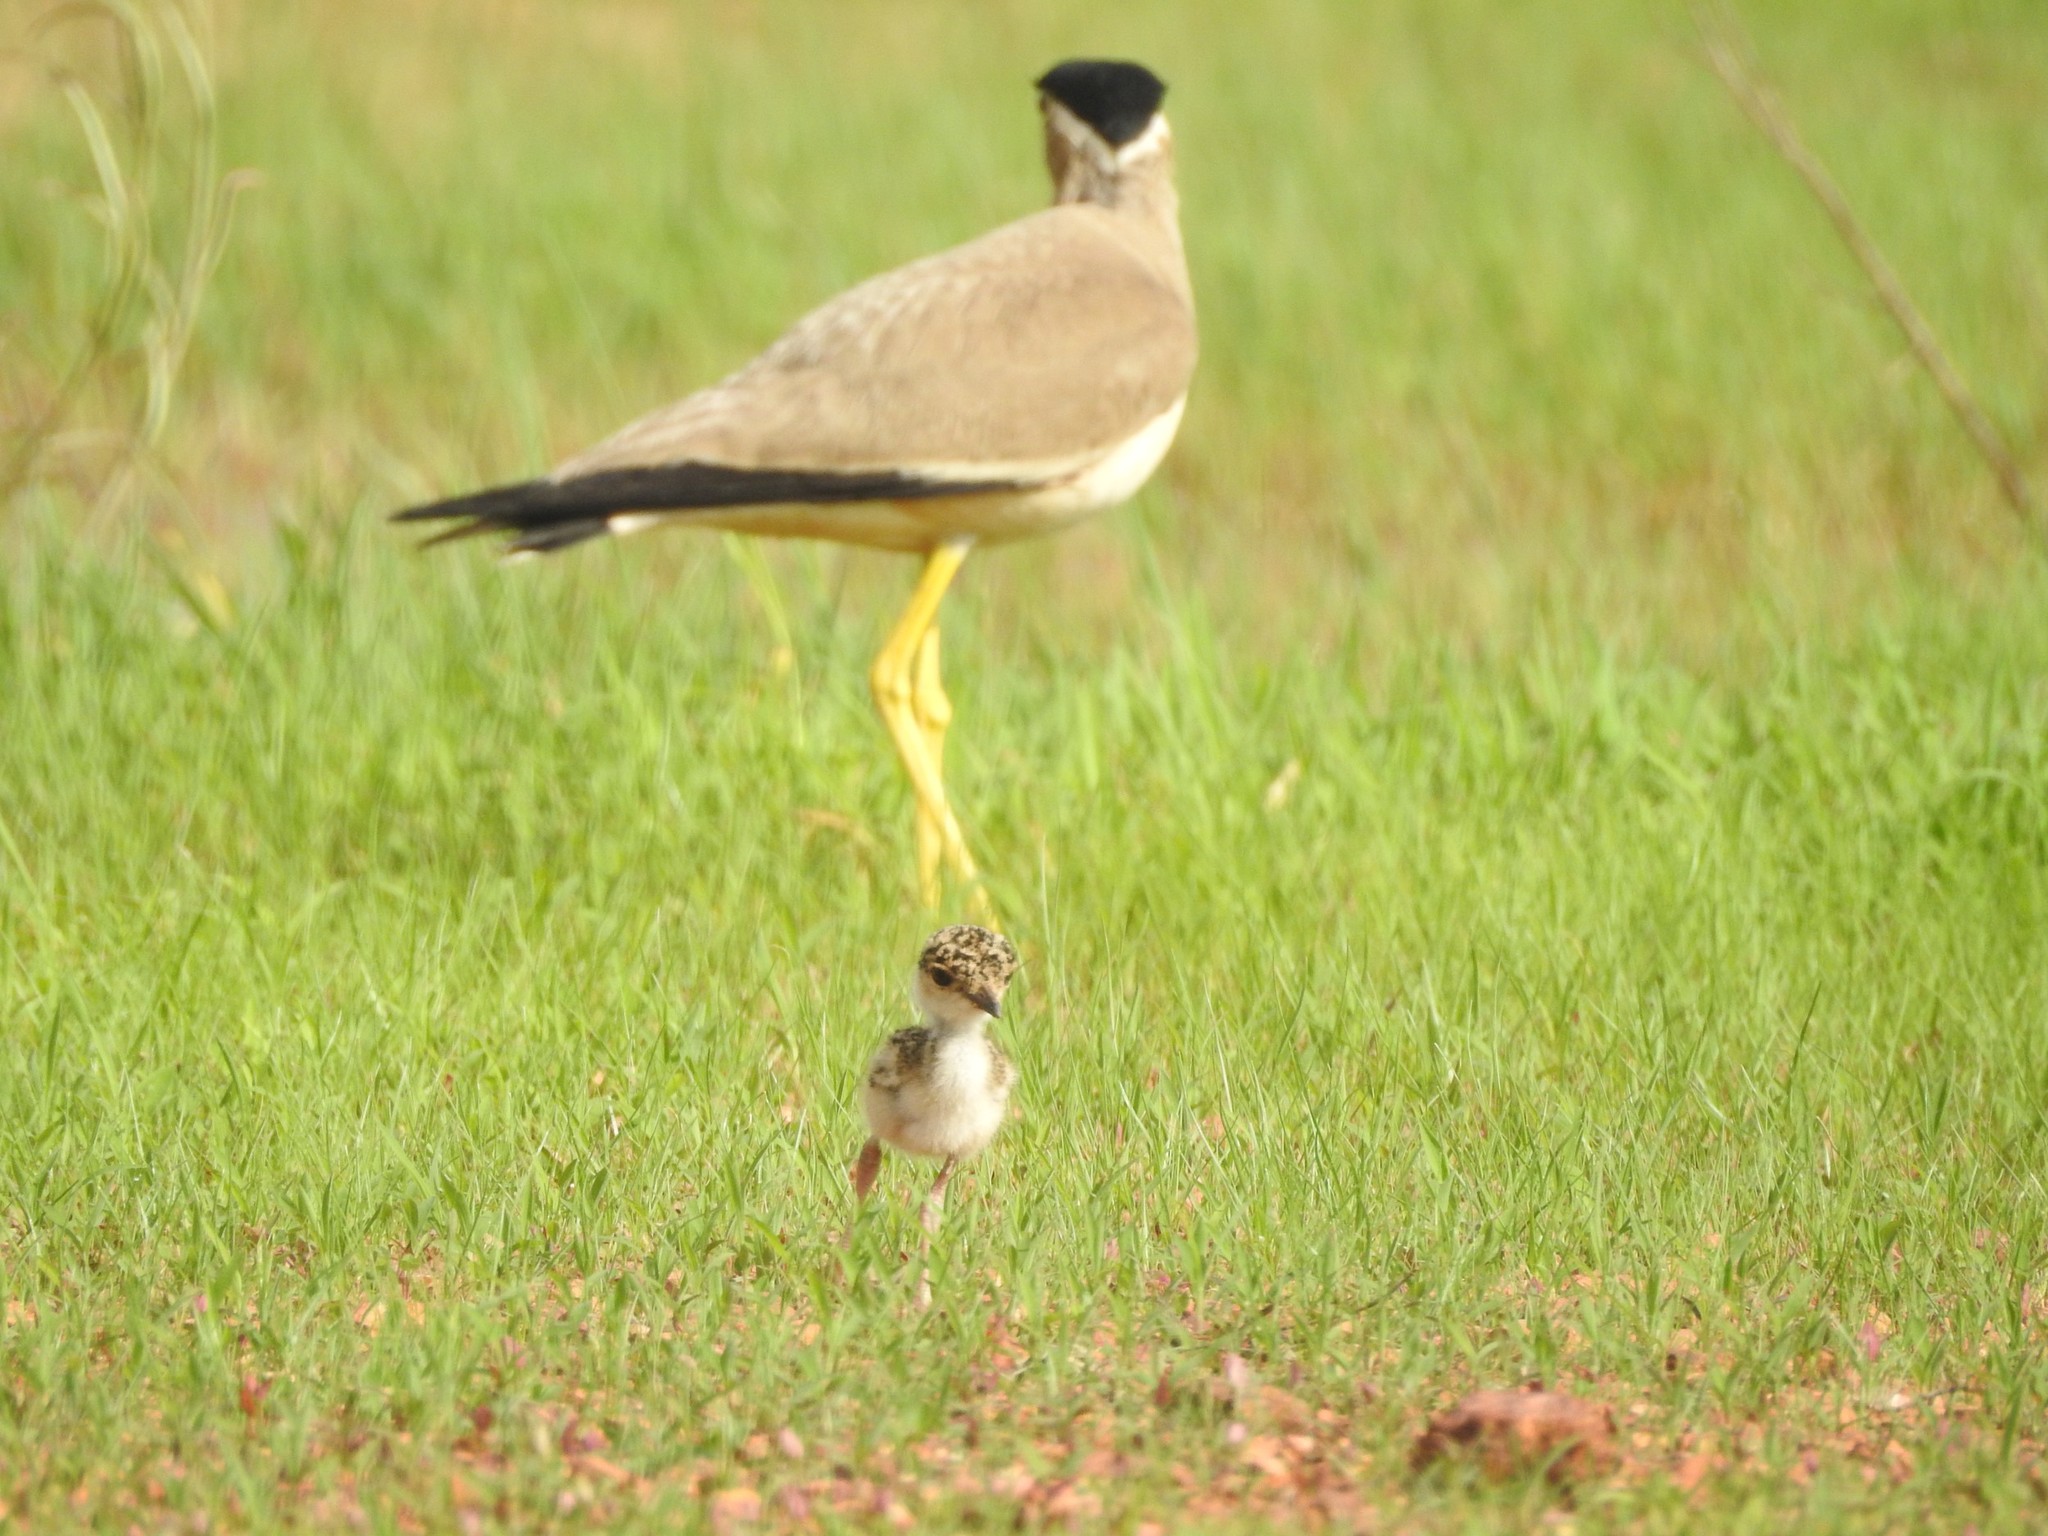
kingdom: Animalia
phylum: Chordata
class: Aves
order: Charadriiformes
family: Charadriidae
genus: Vanellus
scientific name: Vanellus malabaricus
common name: Yellow-wattled lapwing
